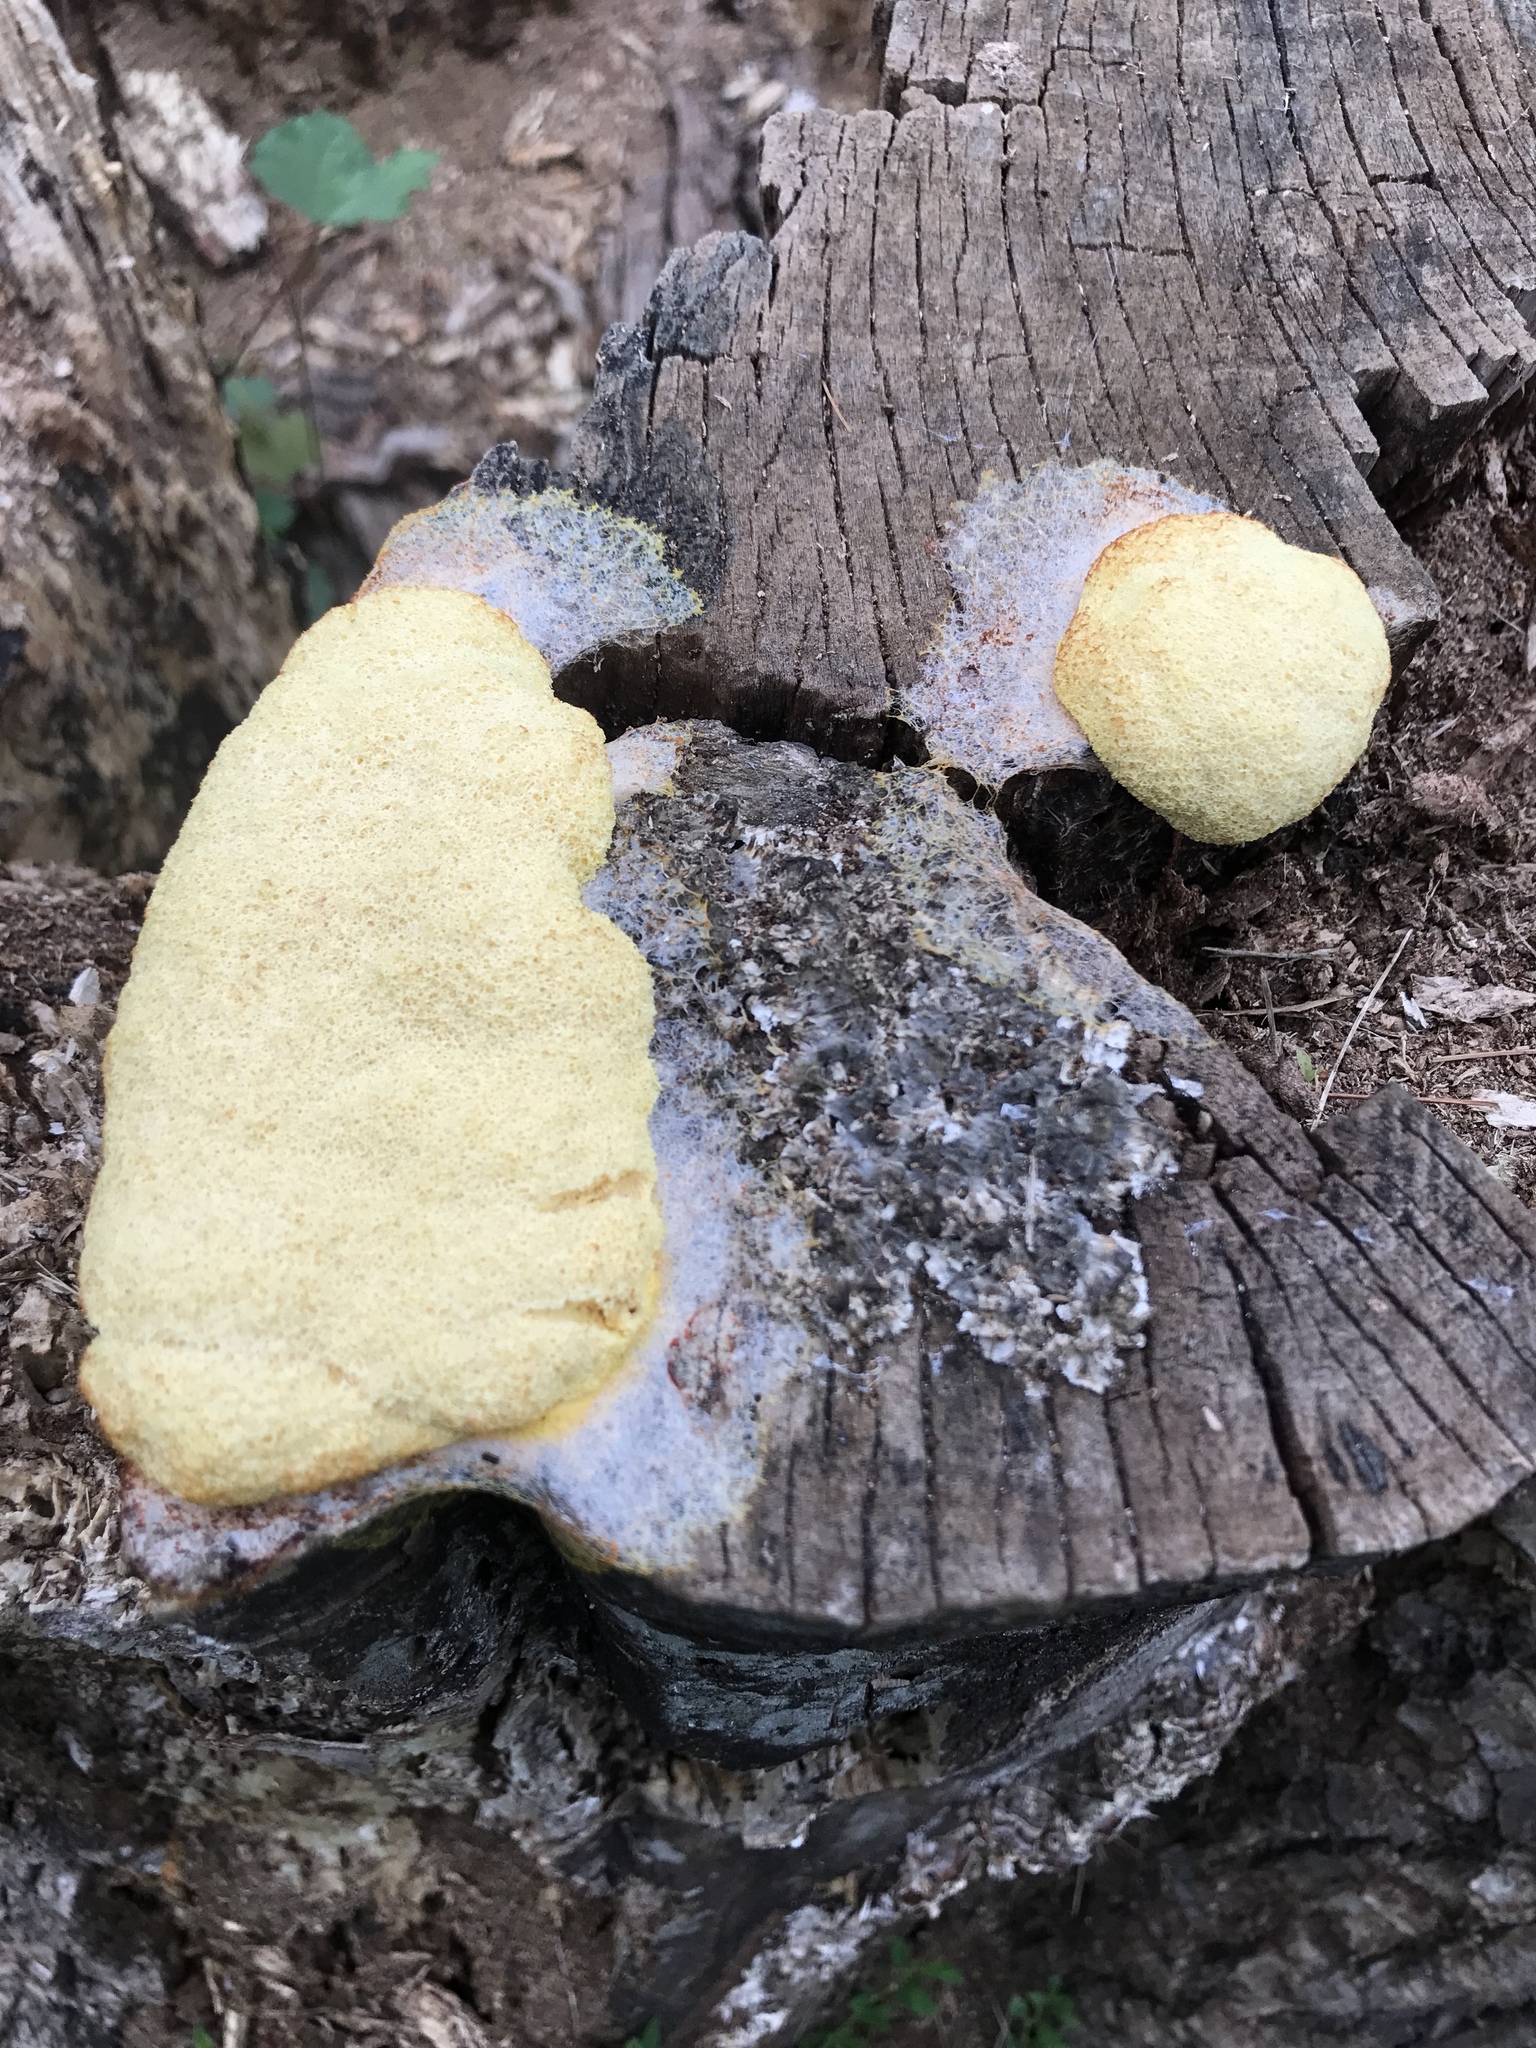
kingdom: Protozoa
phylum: Mycetozoa
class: Myxomycetes
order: Physarales
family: Physaraceae
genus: Fuligo
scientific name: Fuligo septica
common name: Dog vomit slime mold
